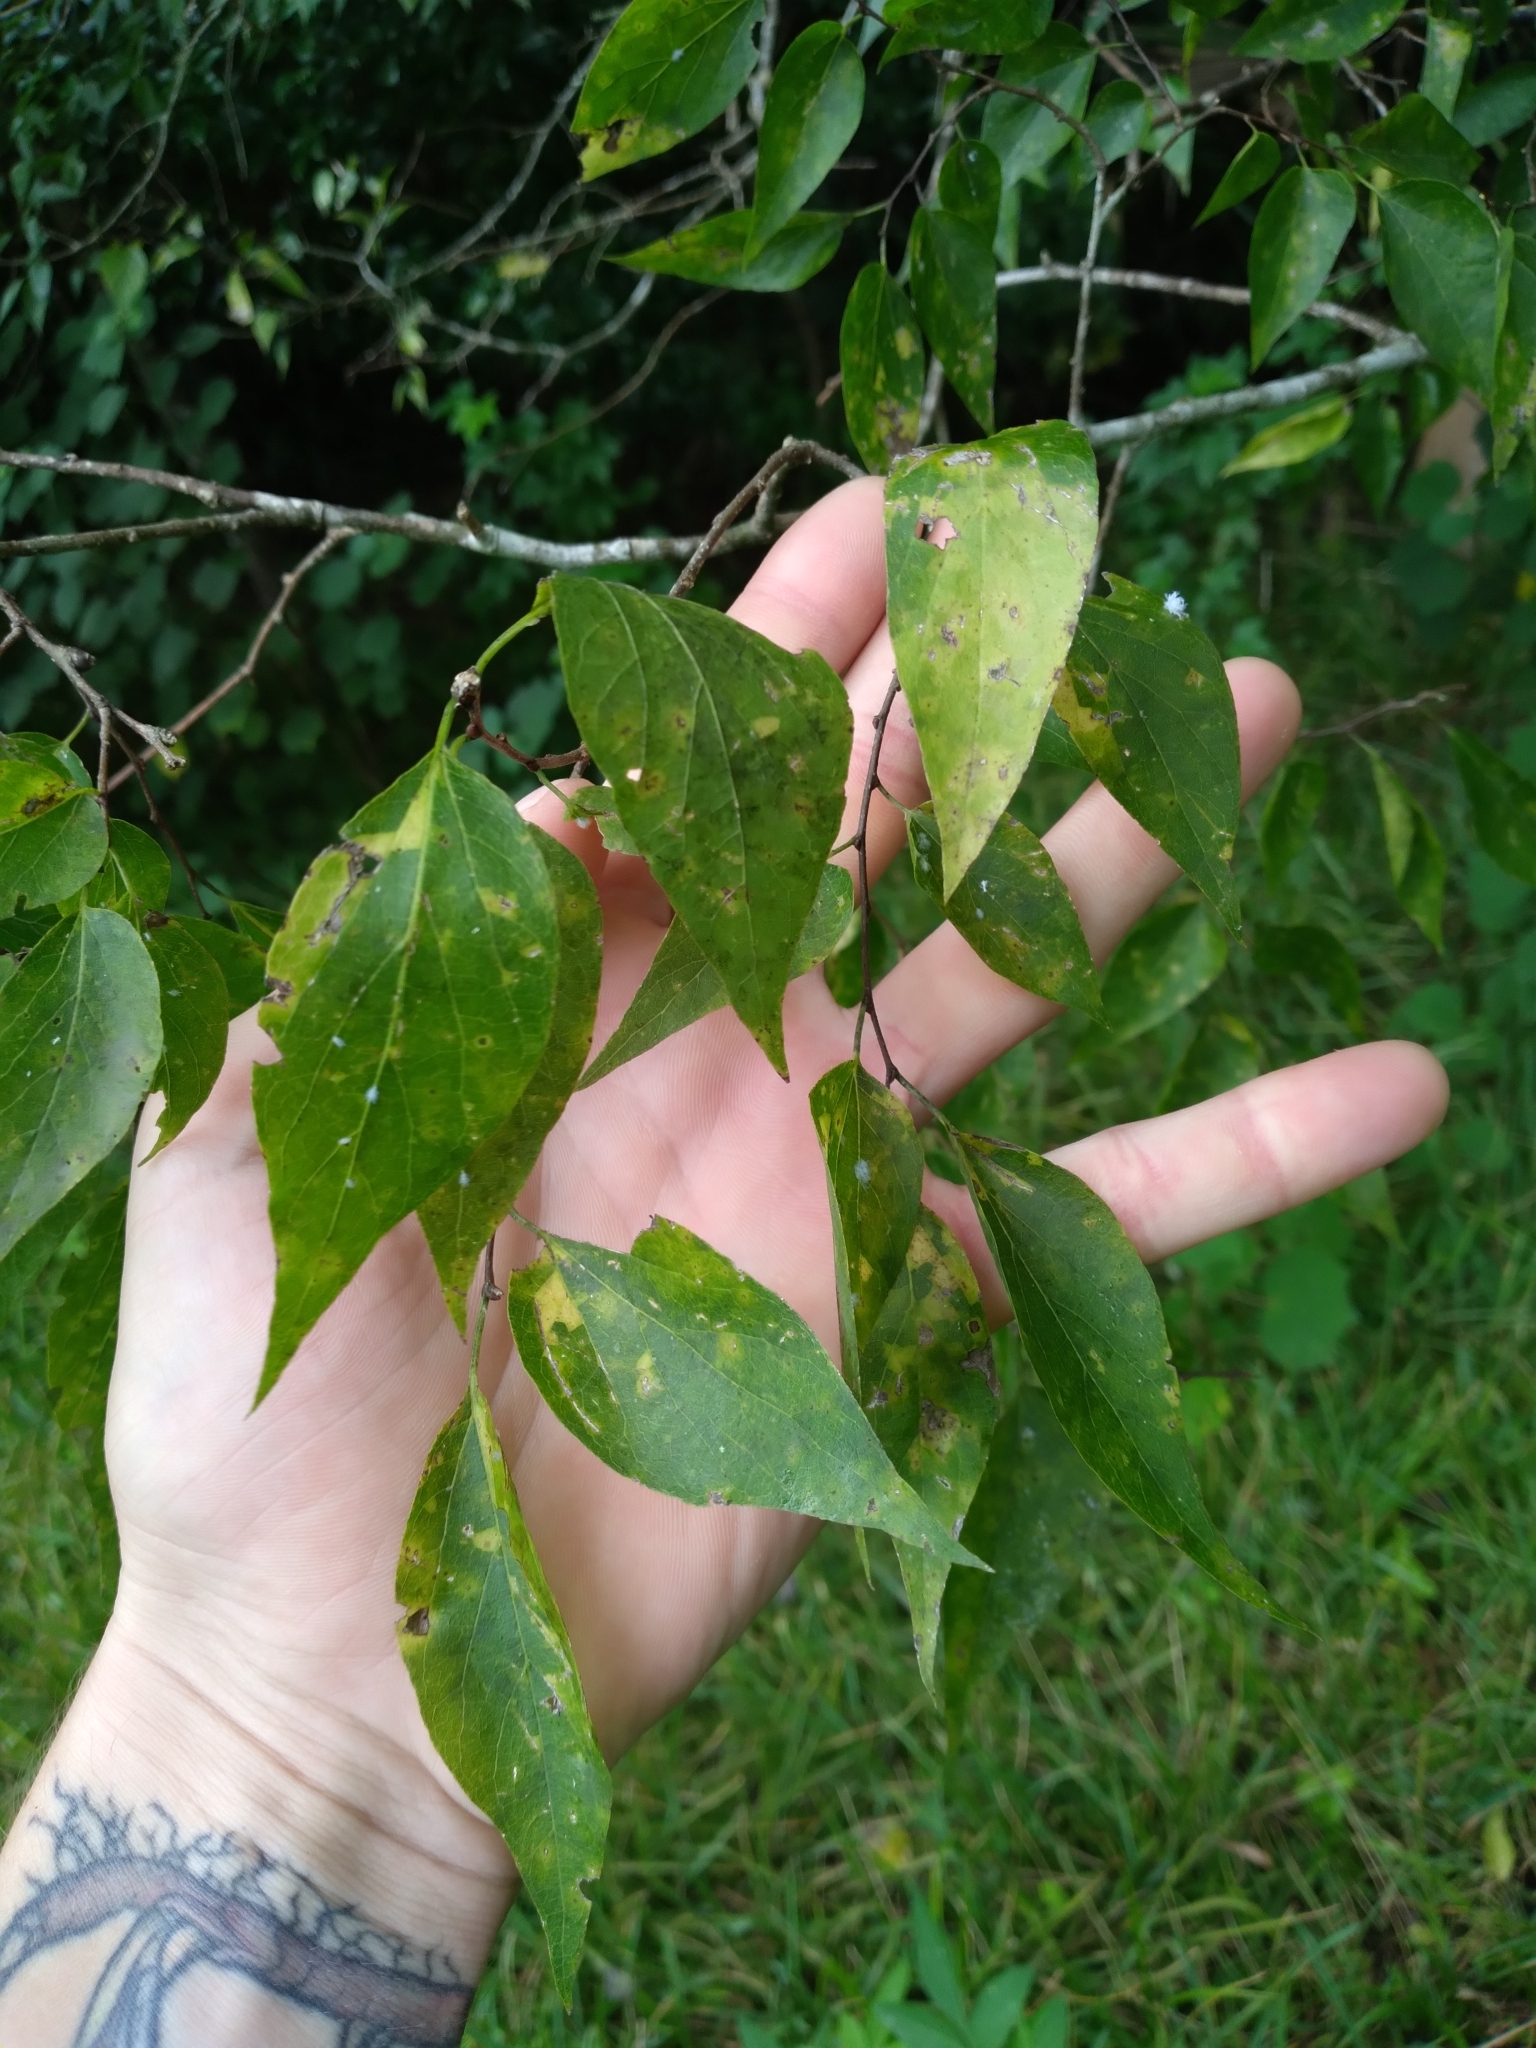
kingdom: Plantae
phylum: Tracheophyta
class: Magnoliopsida
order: Rosales
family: Cannabaceae
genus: Celtis
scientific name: Celtis laevigata
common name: Sugarberry
